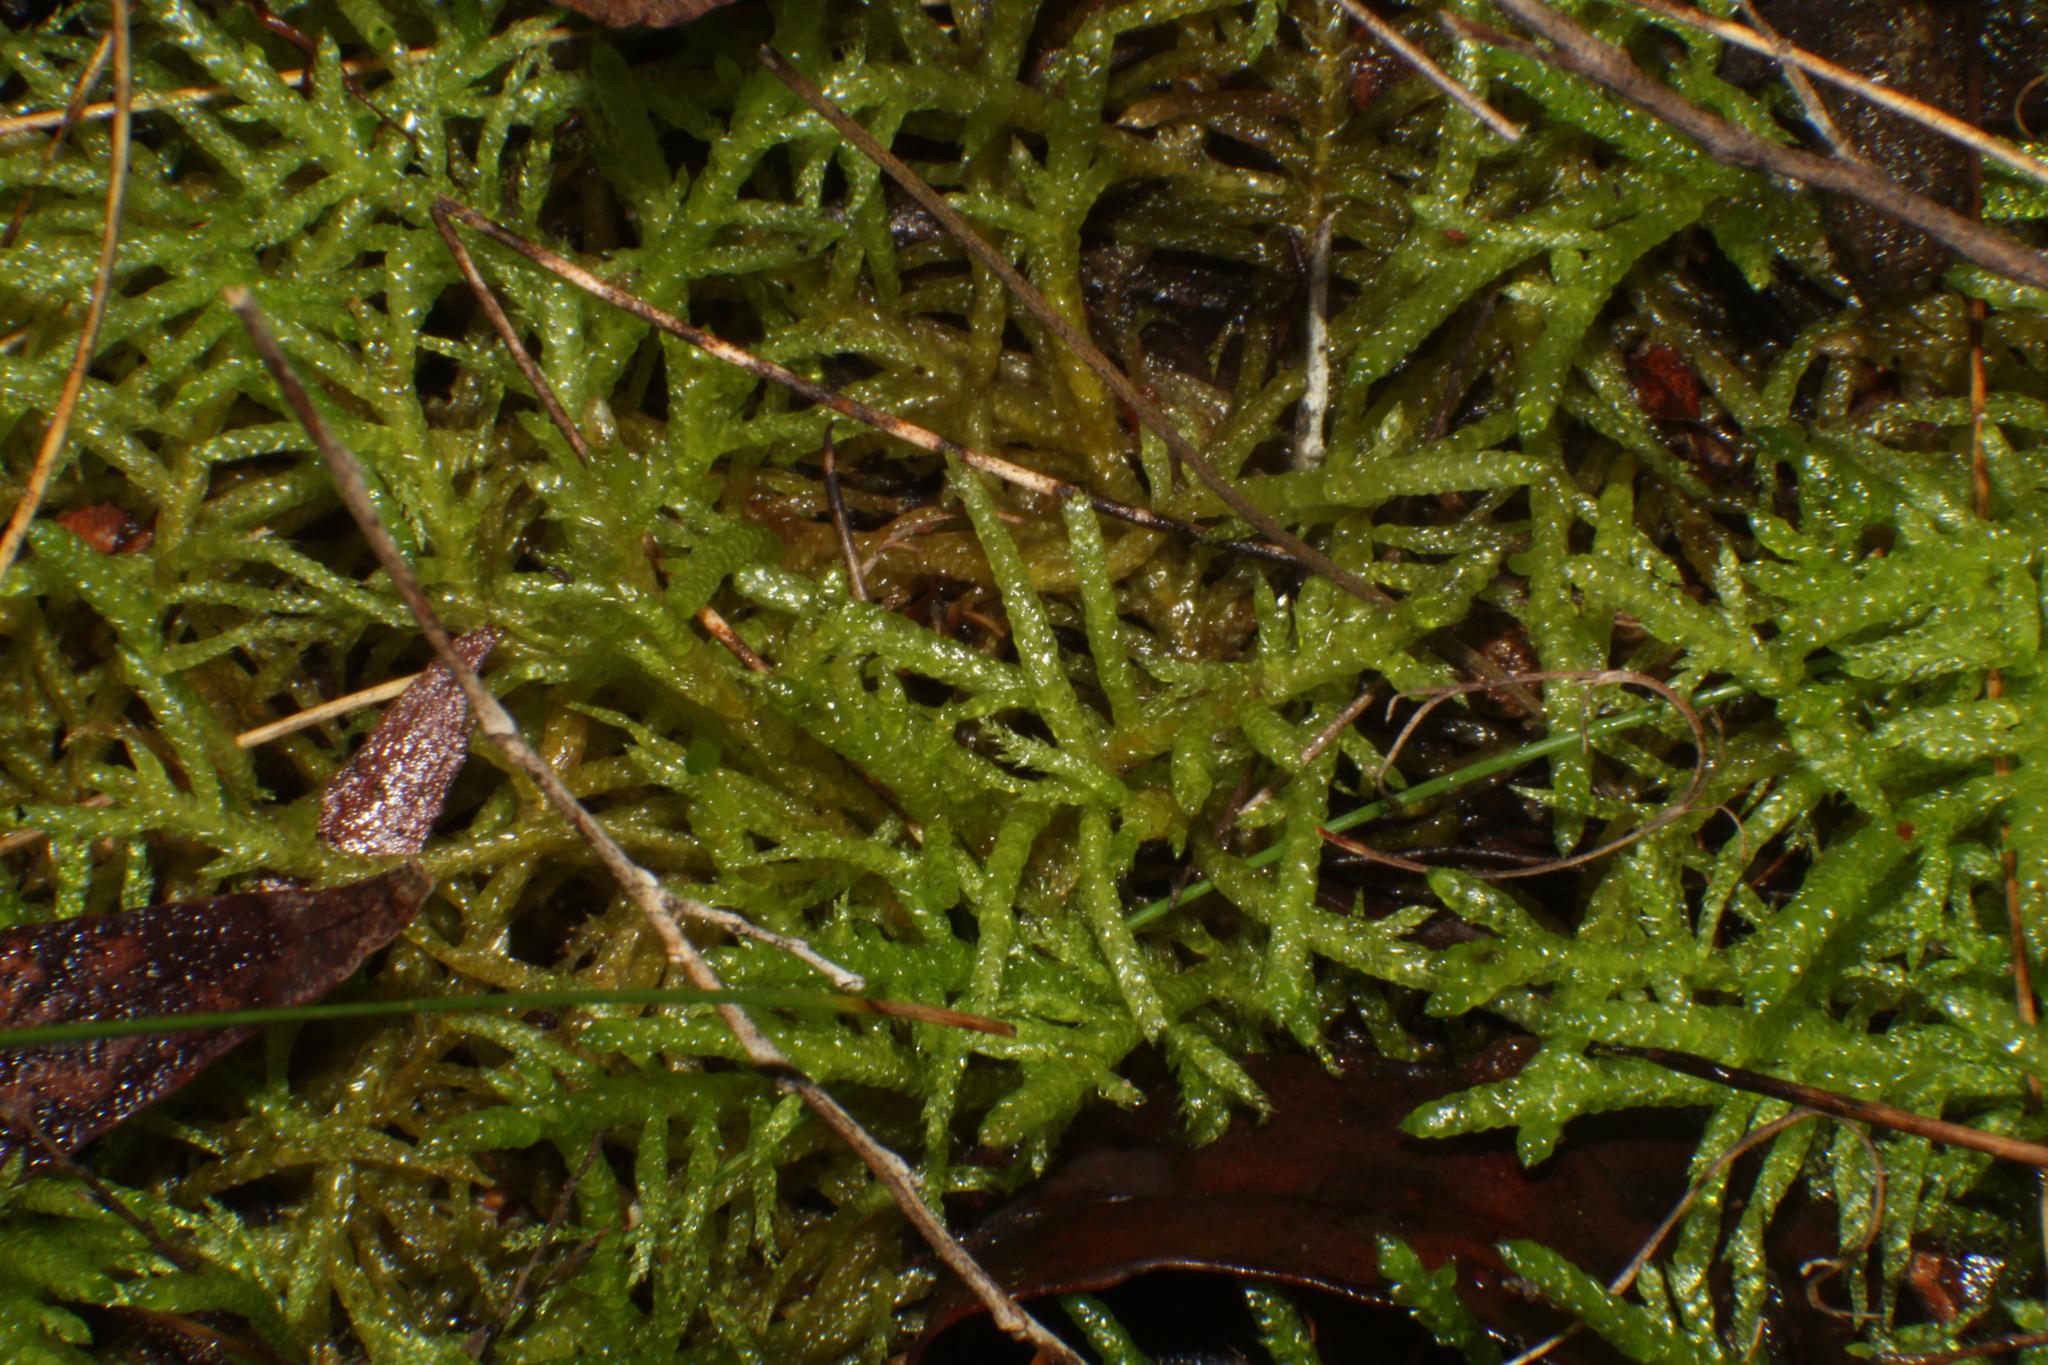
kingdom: Plantae
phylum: Bryophyta
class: Bryopsida
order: Hypnales
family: Brachytheciaceae
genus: Pseudoscleropodium
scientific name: Pseudoscleropodium purum
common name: Neat feather-moss
